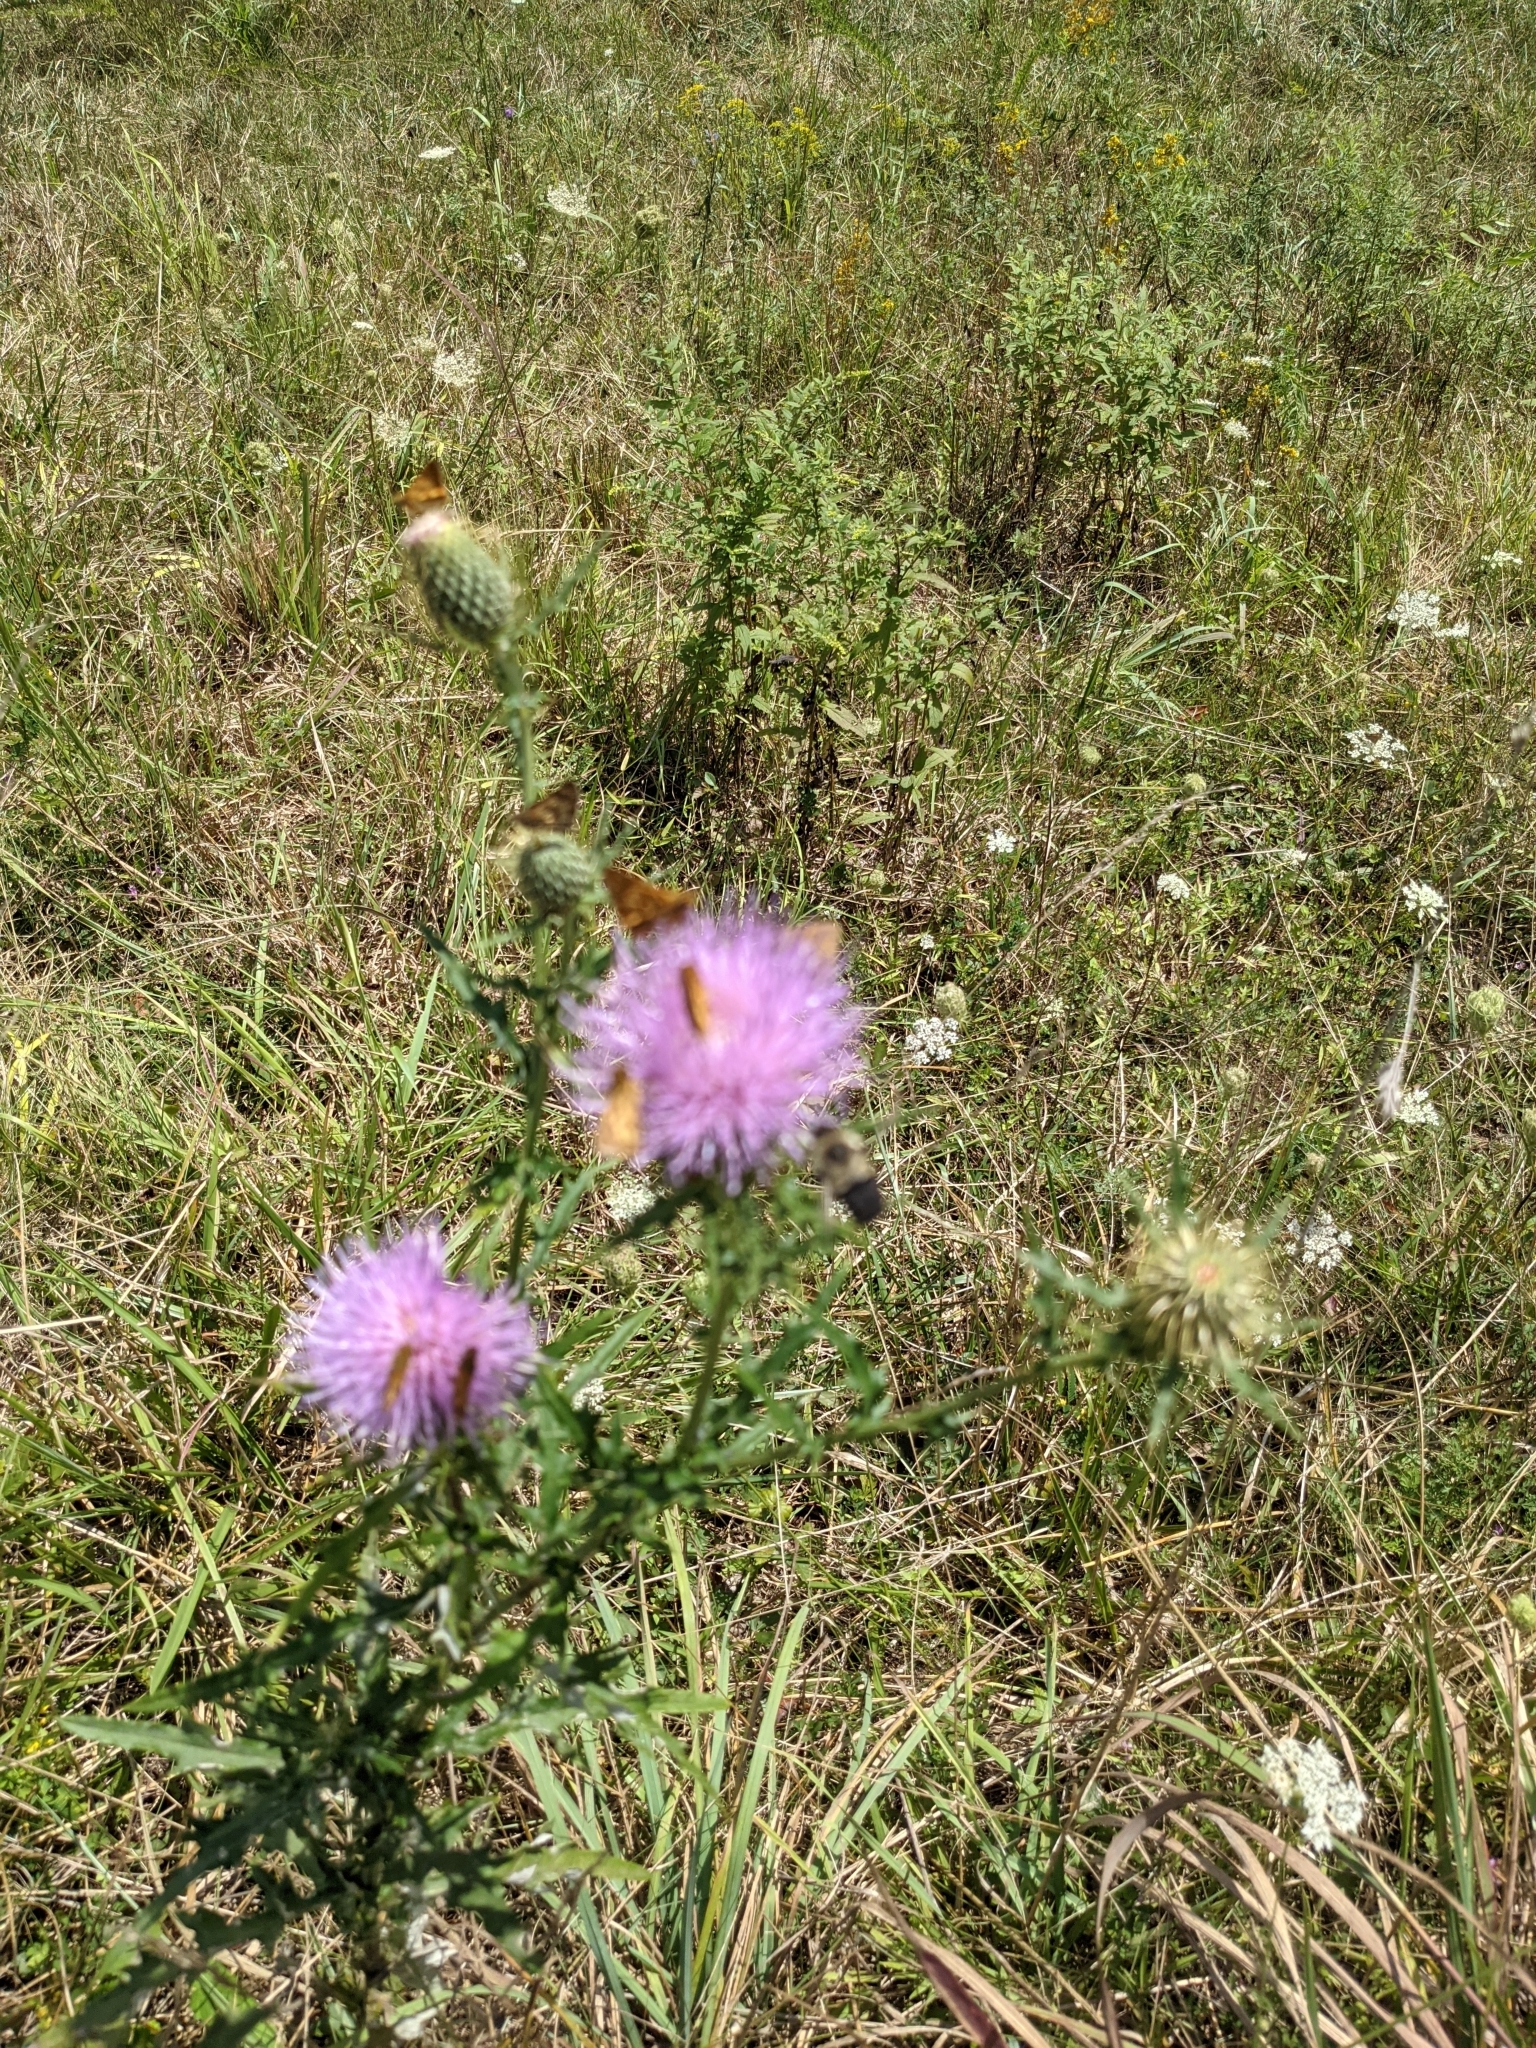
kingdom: Animalia
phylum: Arthropoda
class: Insecta
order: Lepidoptera
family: Hesperiidae
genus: Polites
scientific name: Polites coras
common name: Peck's skipper
